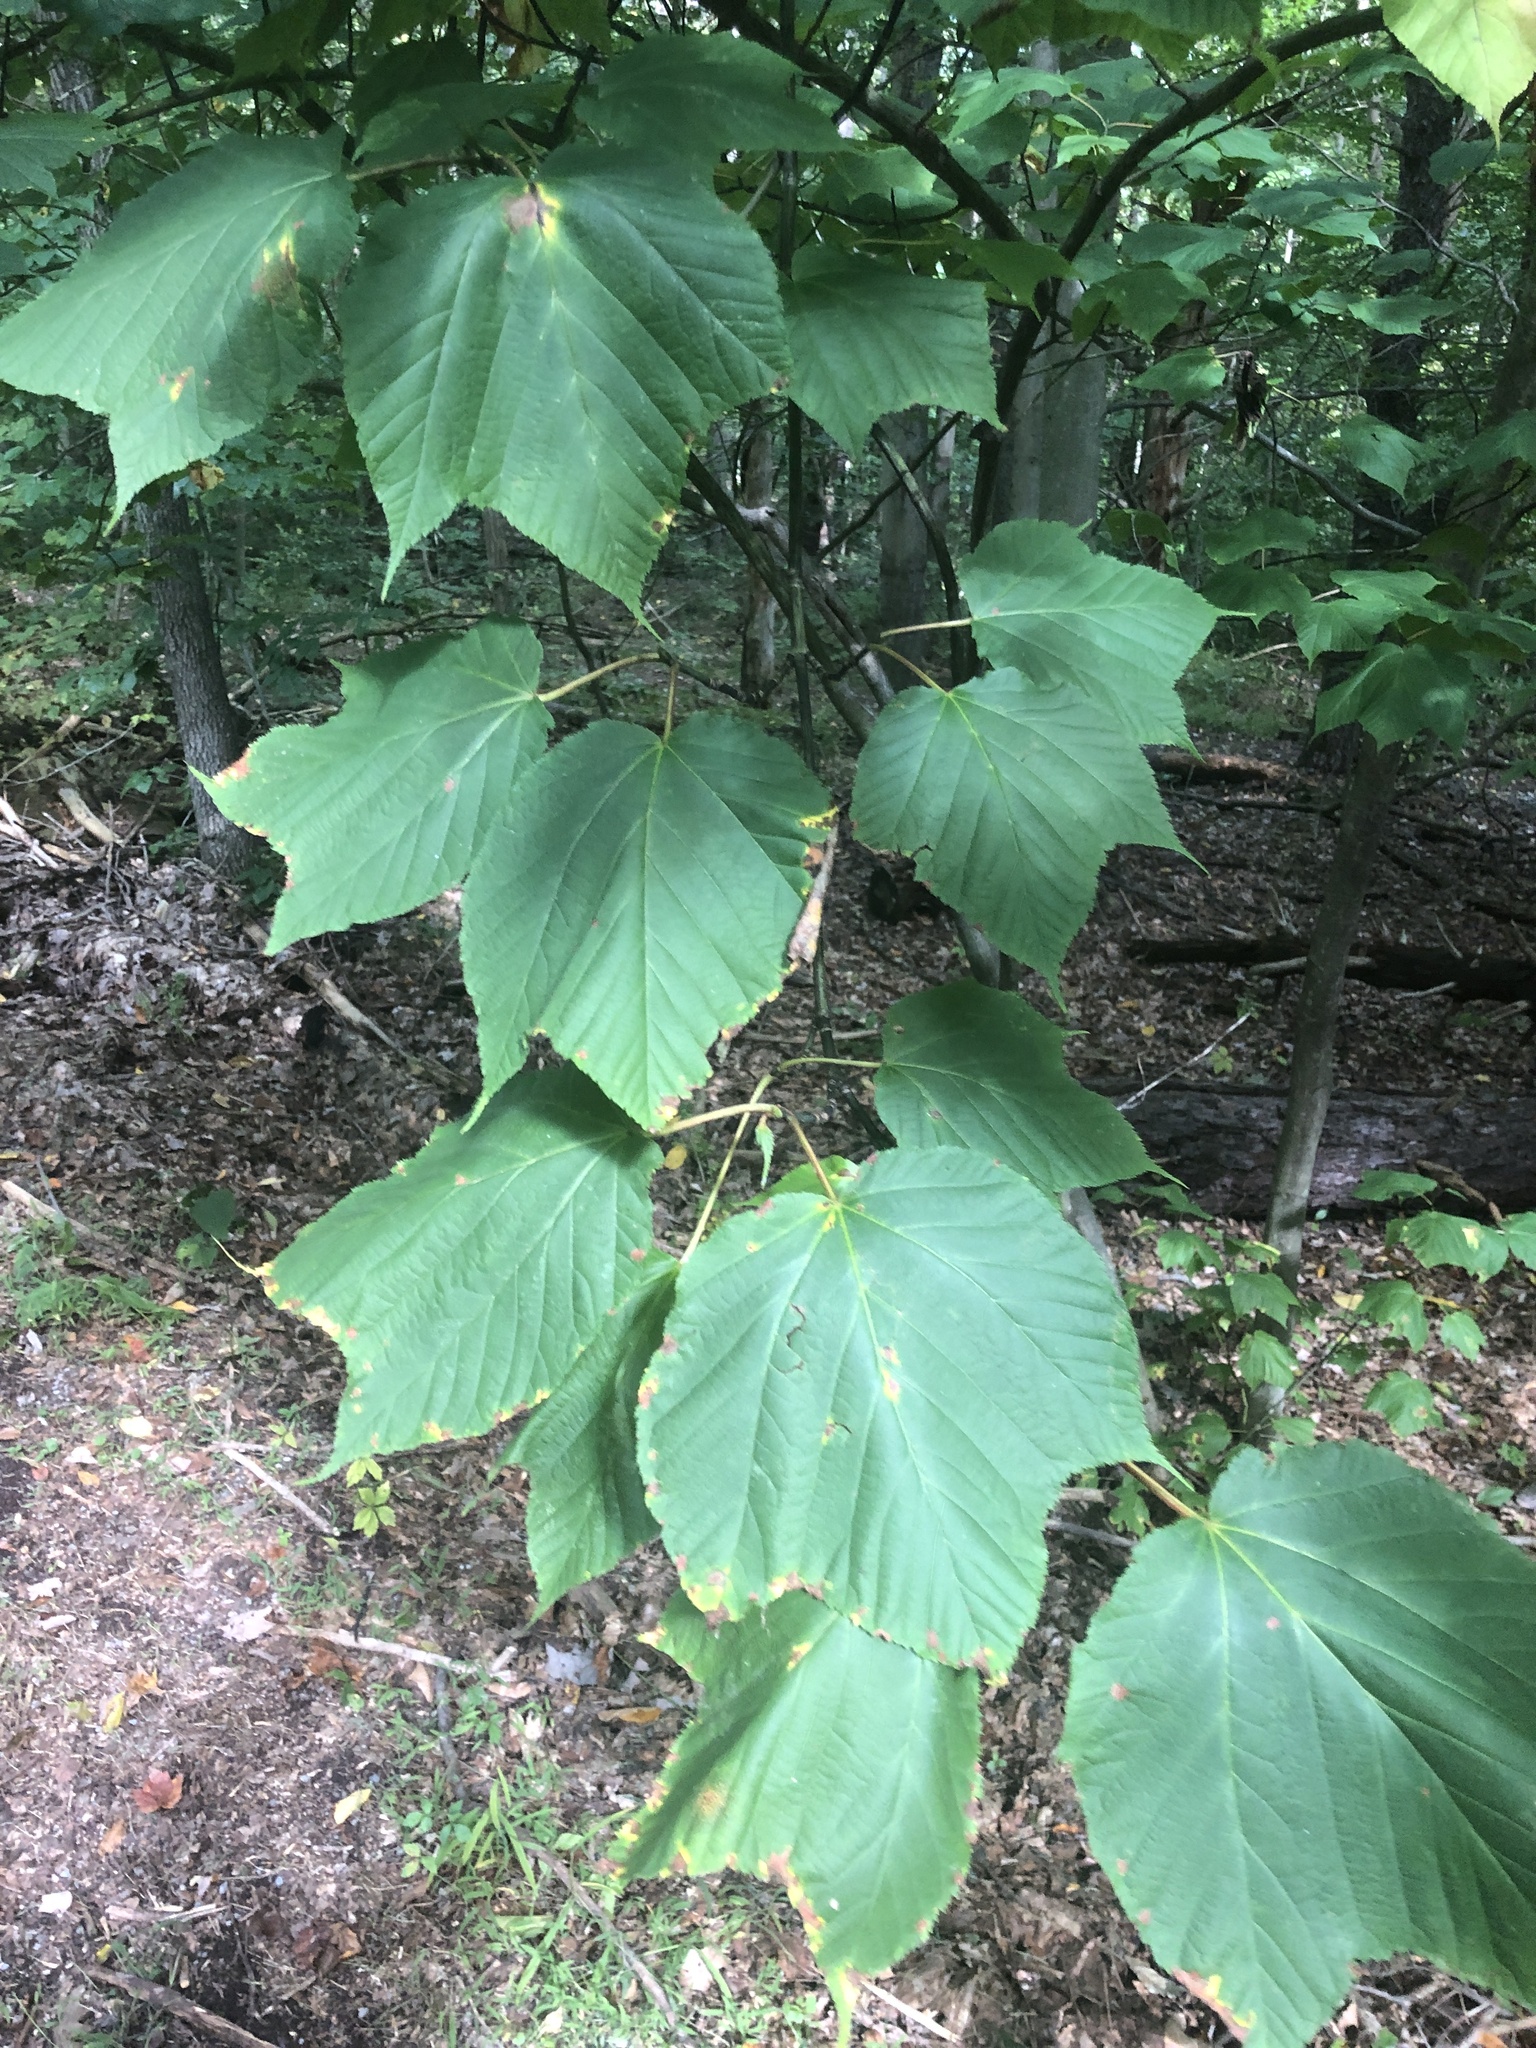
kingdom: Plantae
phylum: Tracheophyta
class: Magnoliopsida
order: Sapindales
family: Sapindaceae
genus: Acer
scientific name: Acer pensylvanicum
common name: Moosewood
